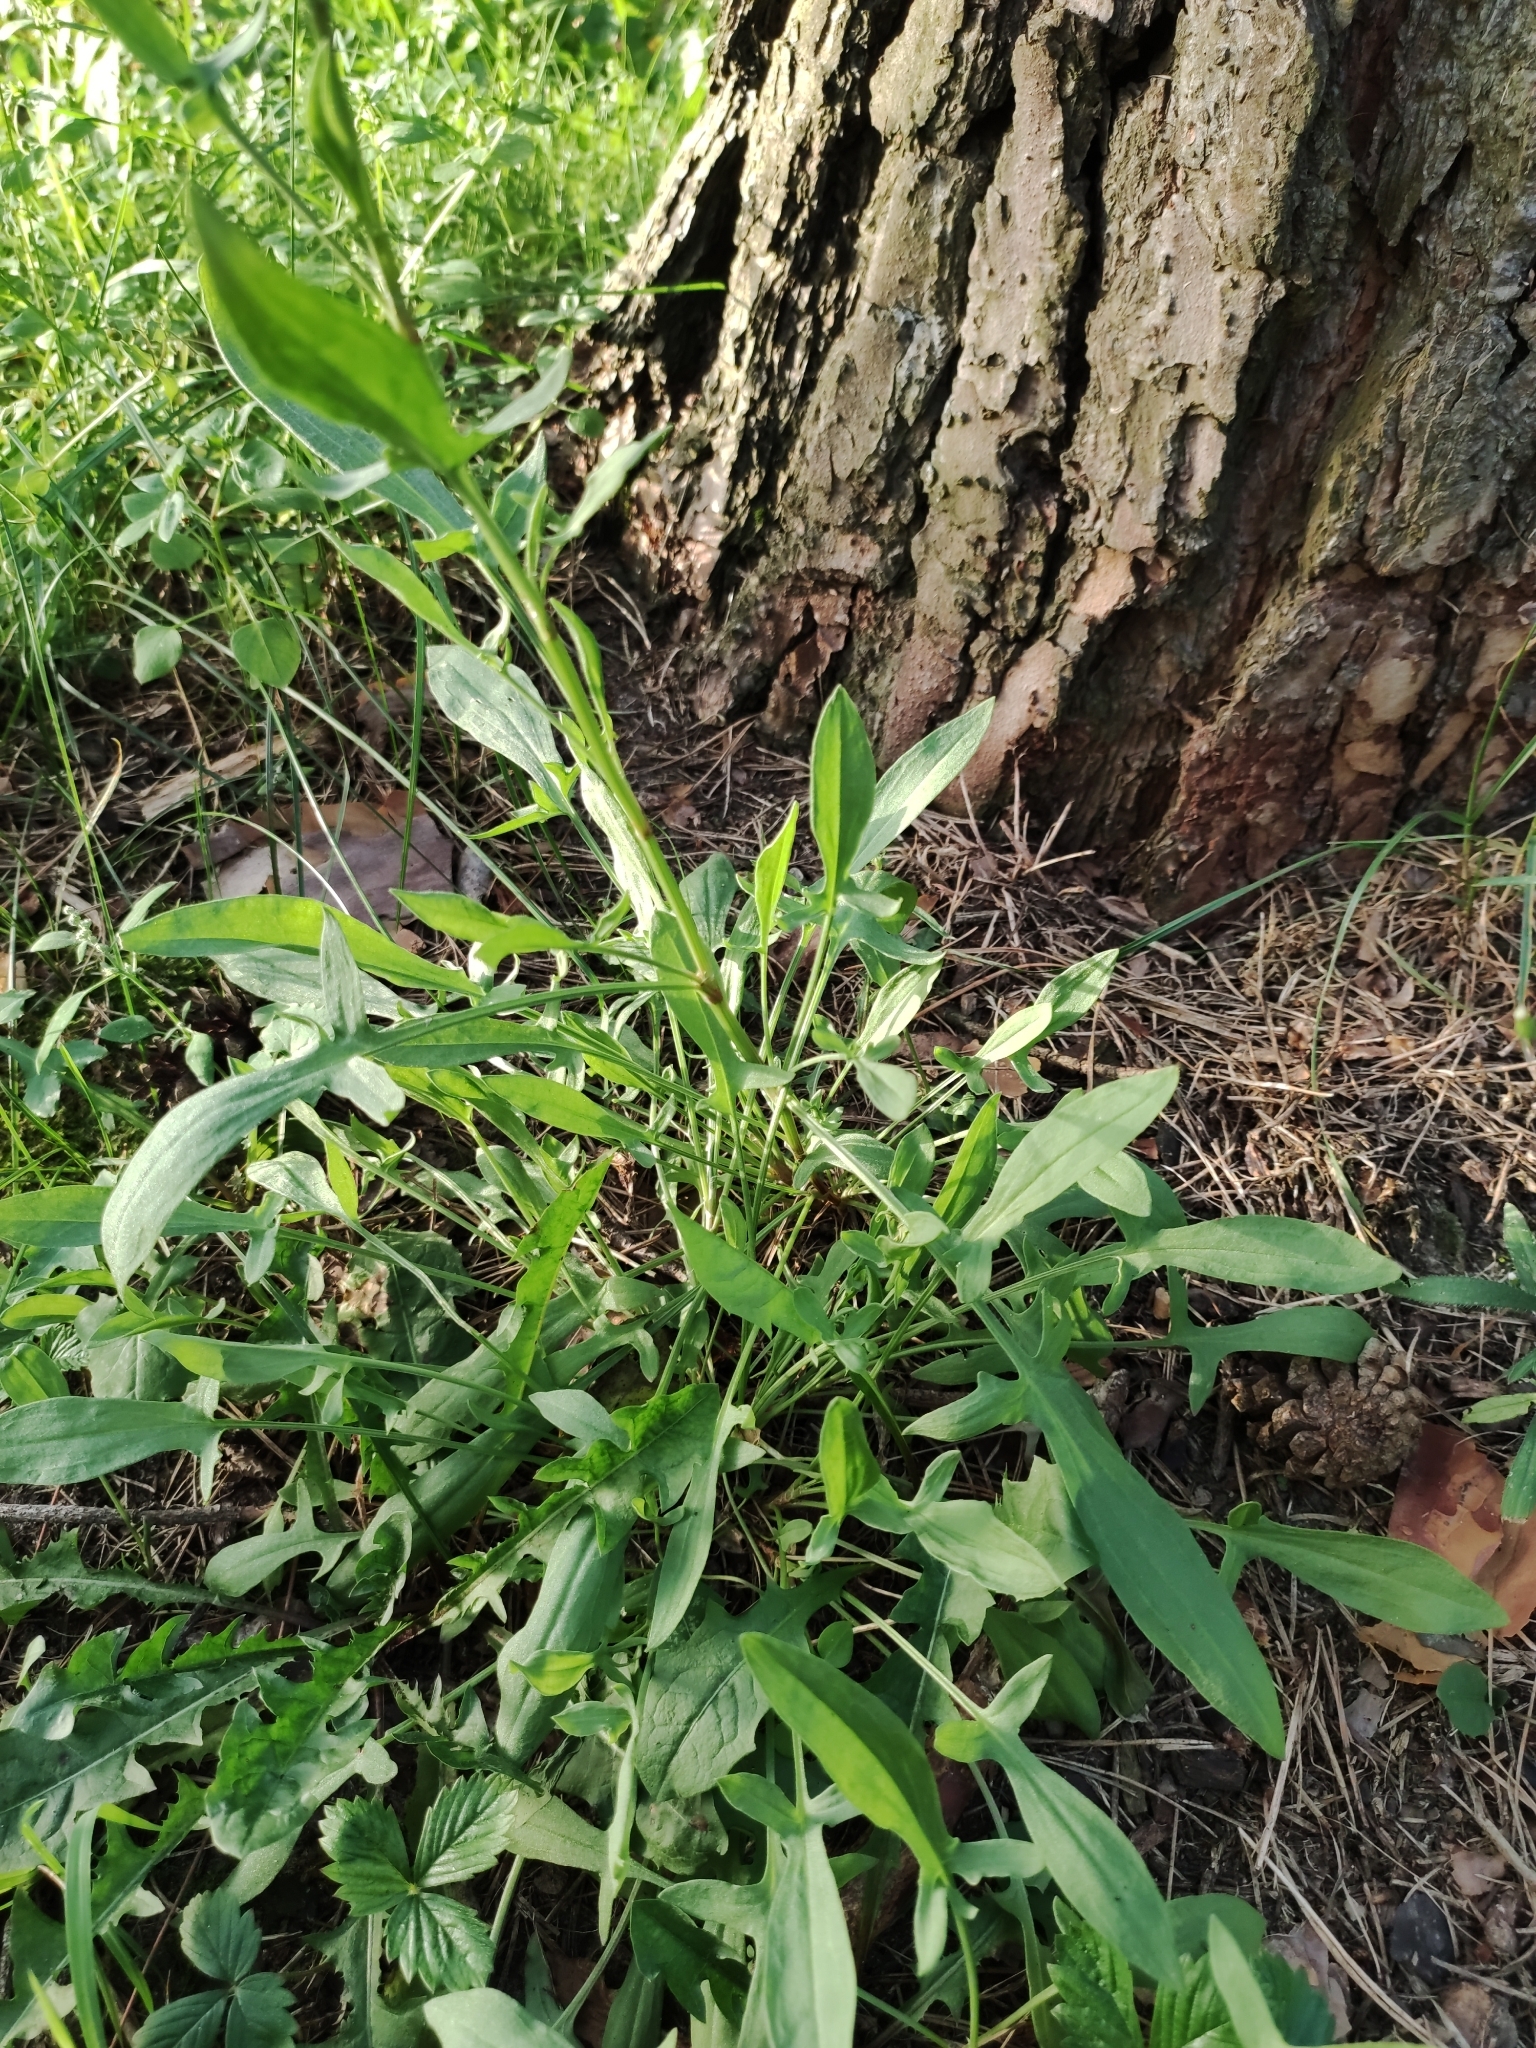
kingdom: Plantae
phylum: Tracheophyta
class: Magnoliopsida
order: Caryophyllales
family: Polygonaceae
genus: Rumex
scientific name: Rumex acetosella
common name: Common sheep sorrel
